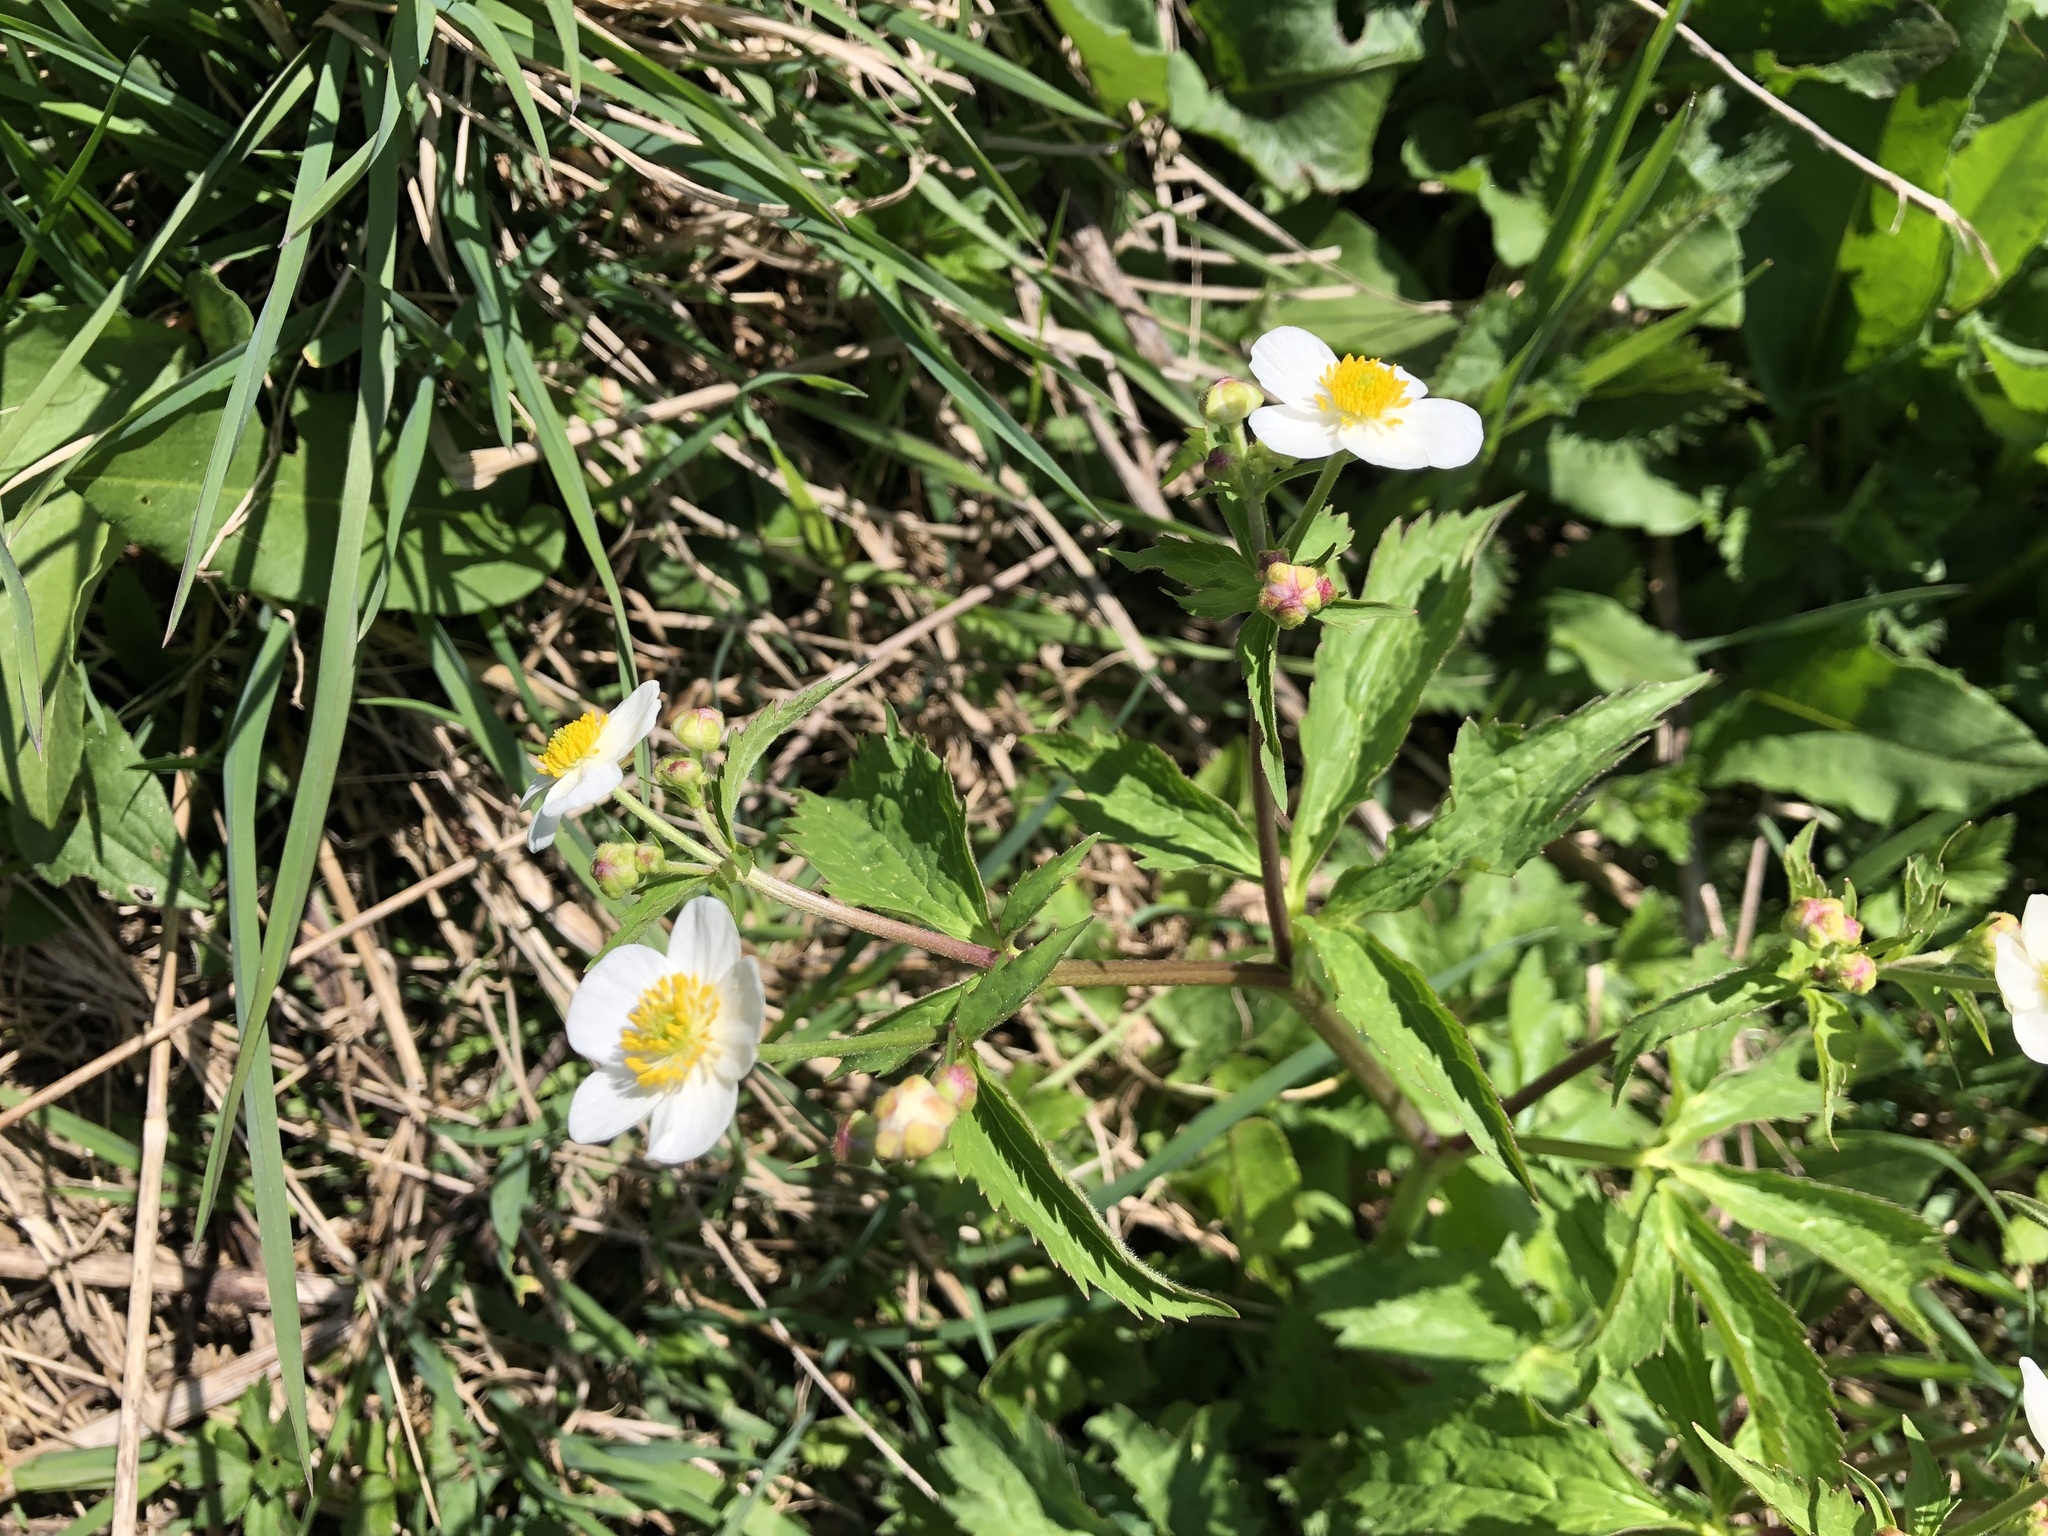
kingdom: Plantae
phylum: Tracheophyta
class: Magnoliopsida
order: Ranunculales
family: Ranunculaceae
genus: Ranunculus
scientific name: Ranunculus aconitifolius
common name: Aconite-leaved buttercup
